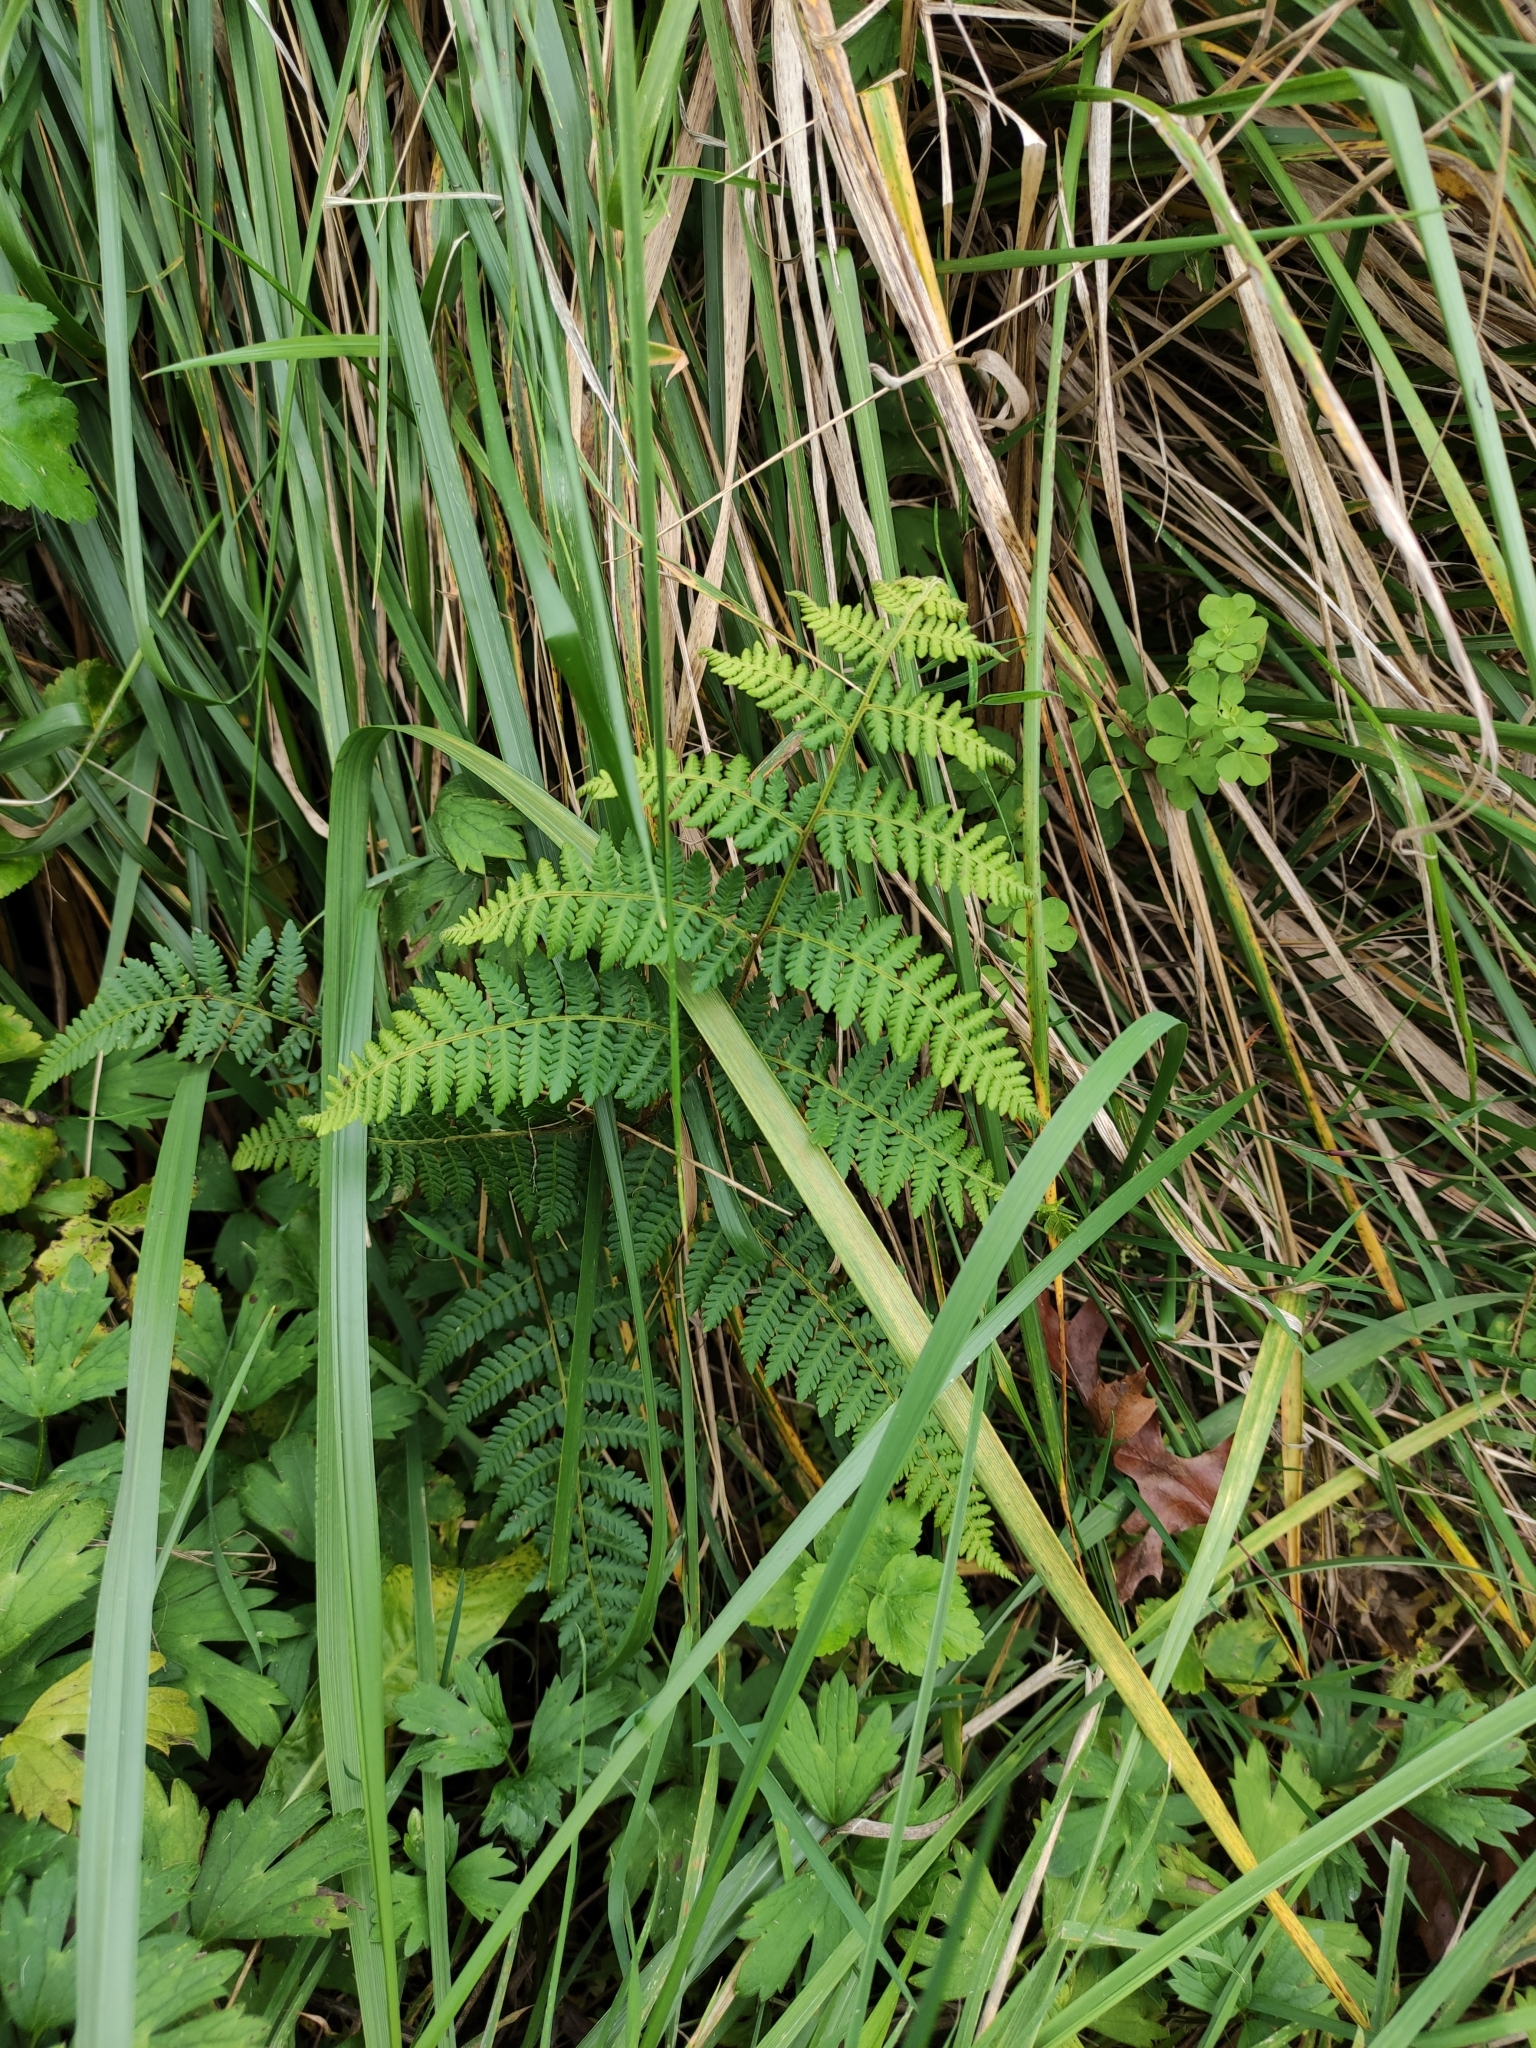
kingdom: Plantae
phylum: Tracheophyta
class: Polypodiopsida
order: Polypodiales
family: Dennstaedtiaceae
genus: Hypolepis
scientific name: Hypolepis ambigua
